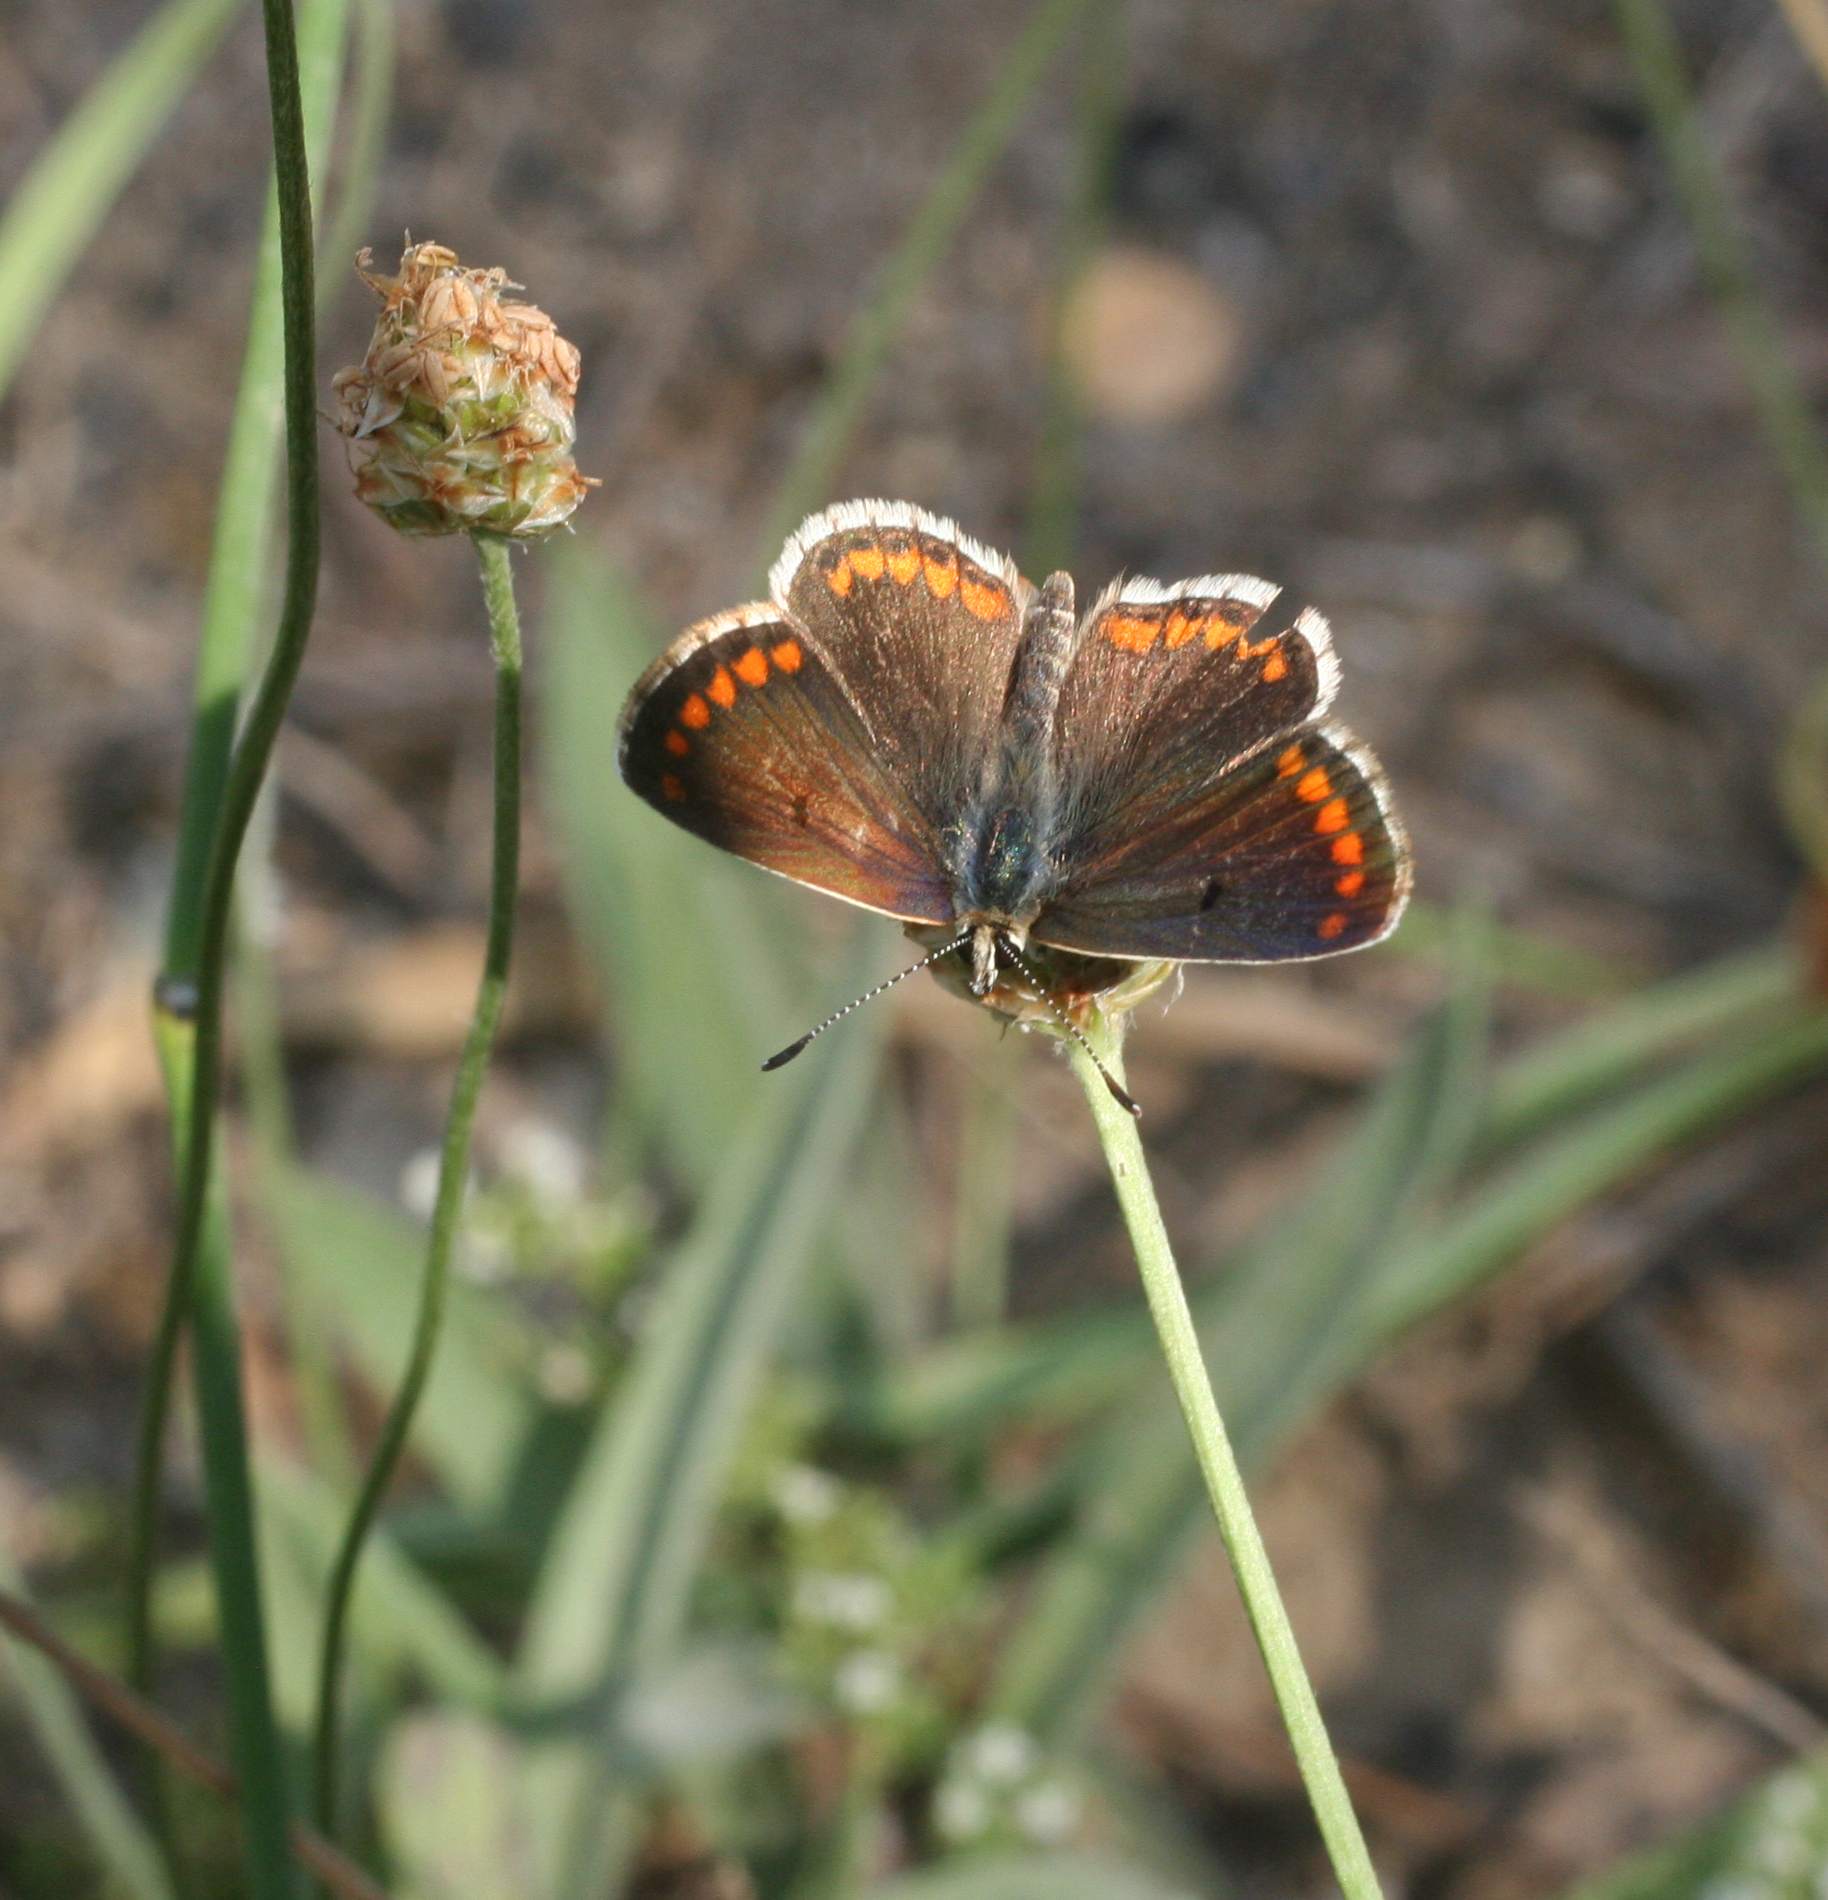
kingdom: Animalia
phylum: Arthropoda
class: Insecta
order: Lepidoptera
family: Lycaenidae
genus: Aricia
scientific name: Aricia agestis
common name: Brown argus
